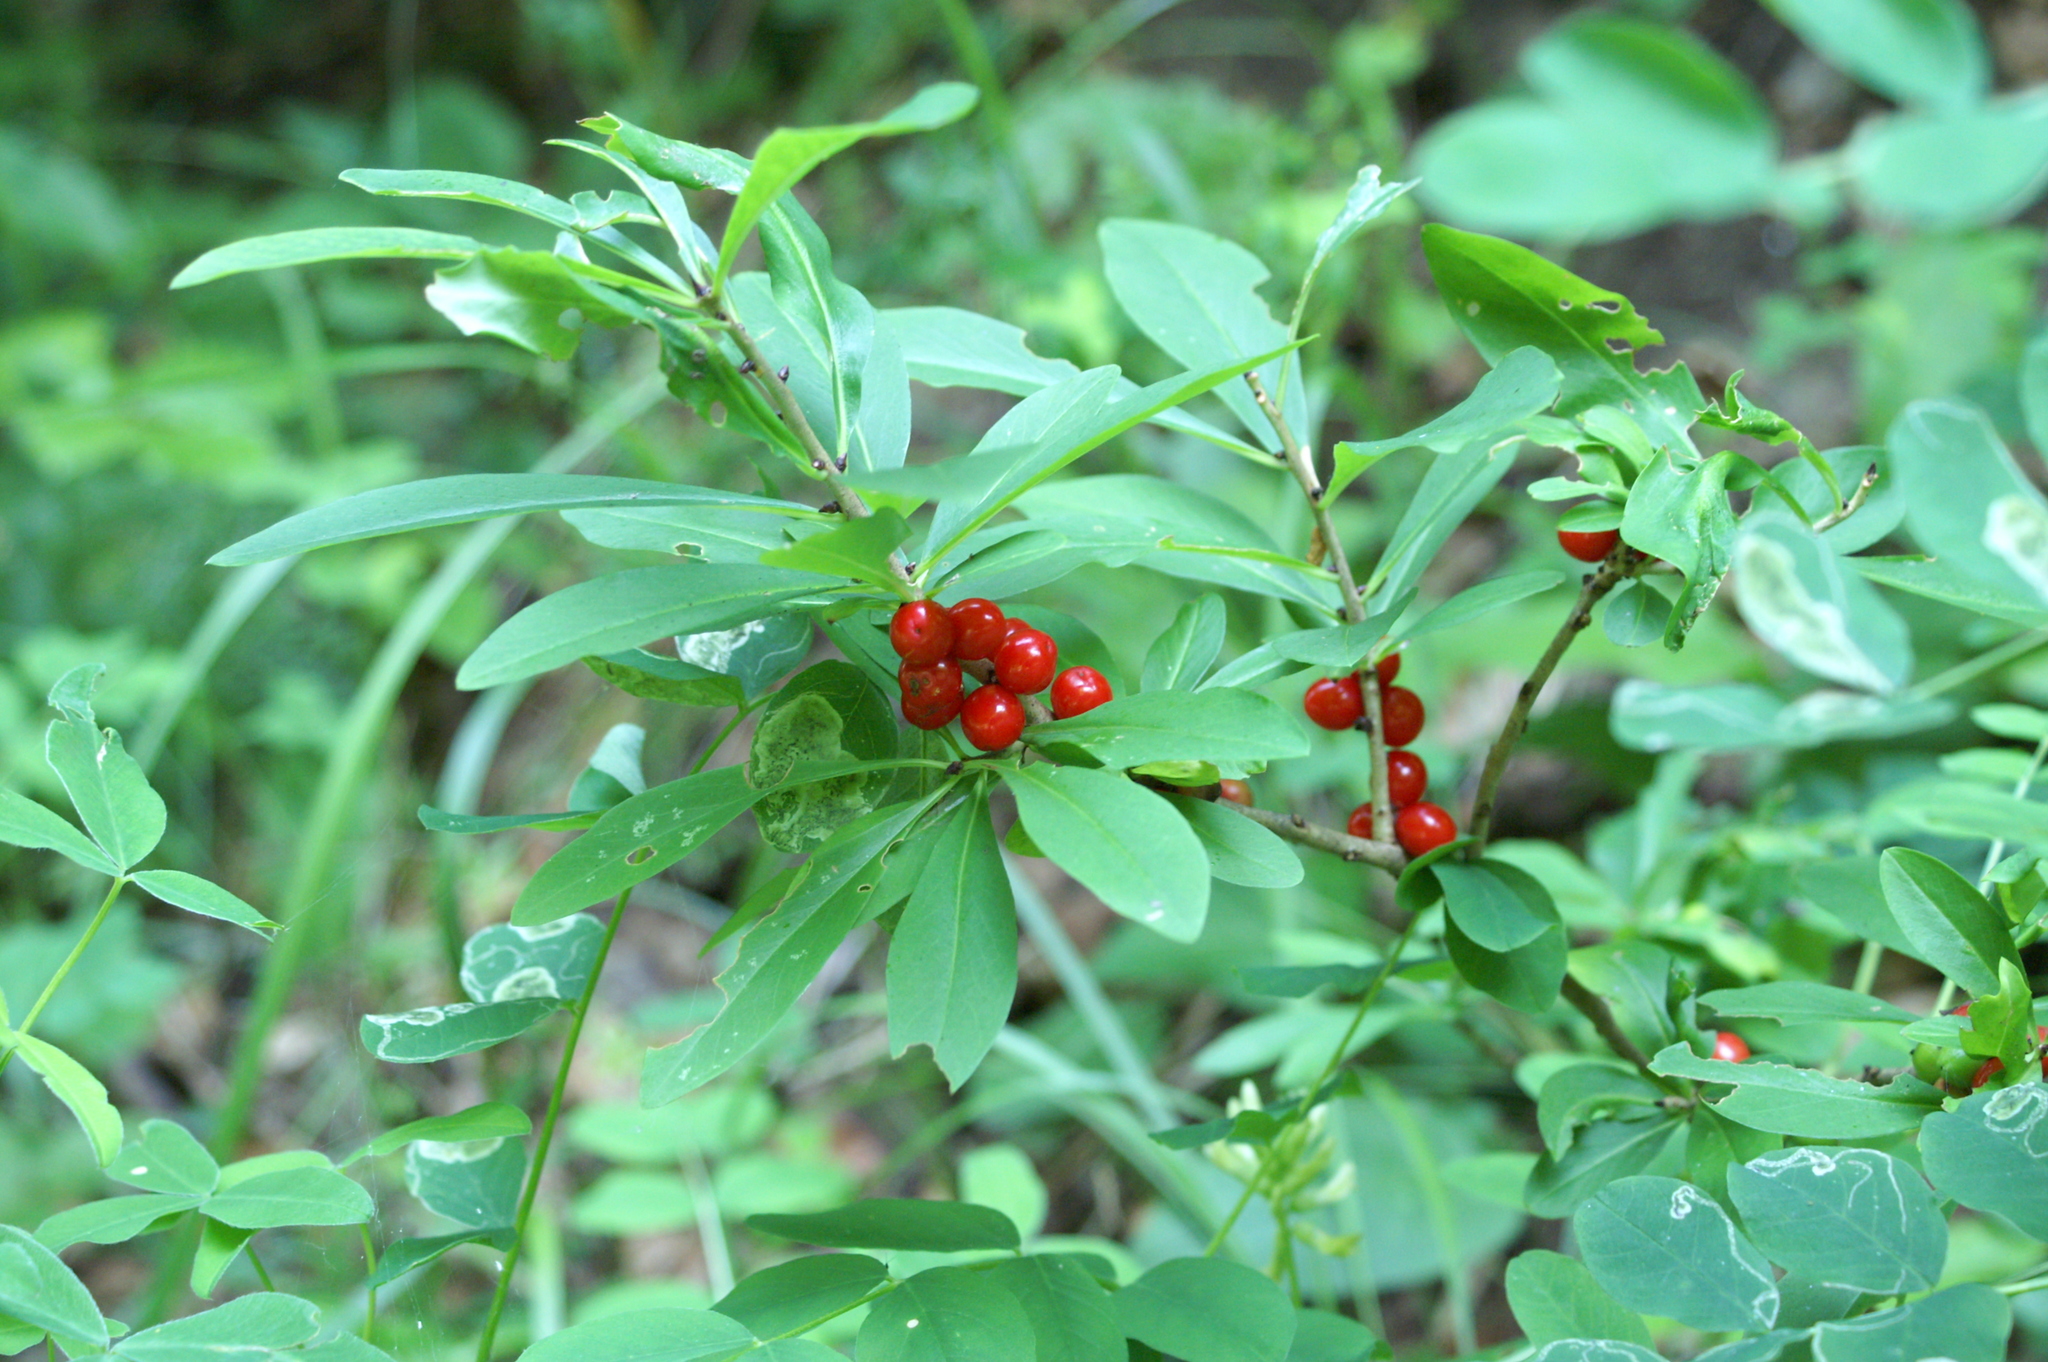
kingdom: Plantae
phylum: Tracheophyta
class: Magnoliopsida
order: Malvales
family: Thymelaeaceae
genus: Daphne
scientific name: Daphne mezereum
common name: Mezereon
